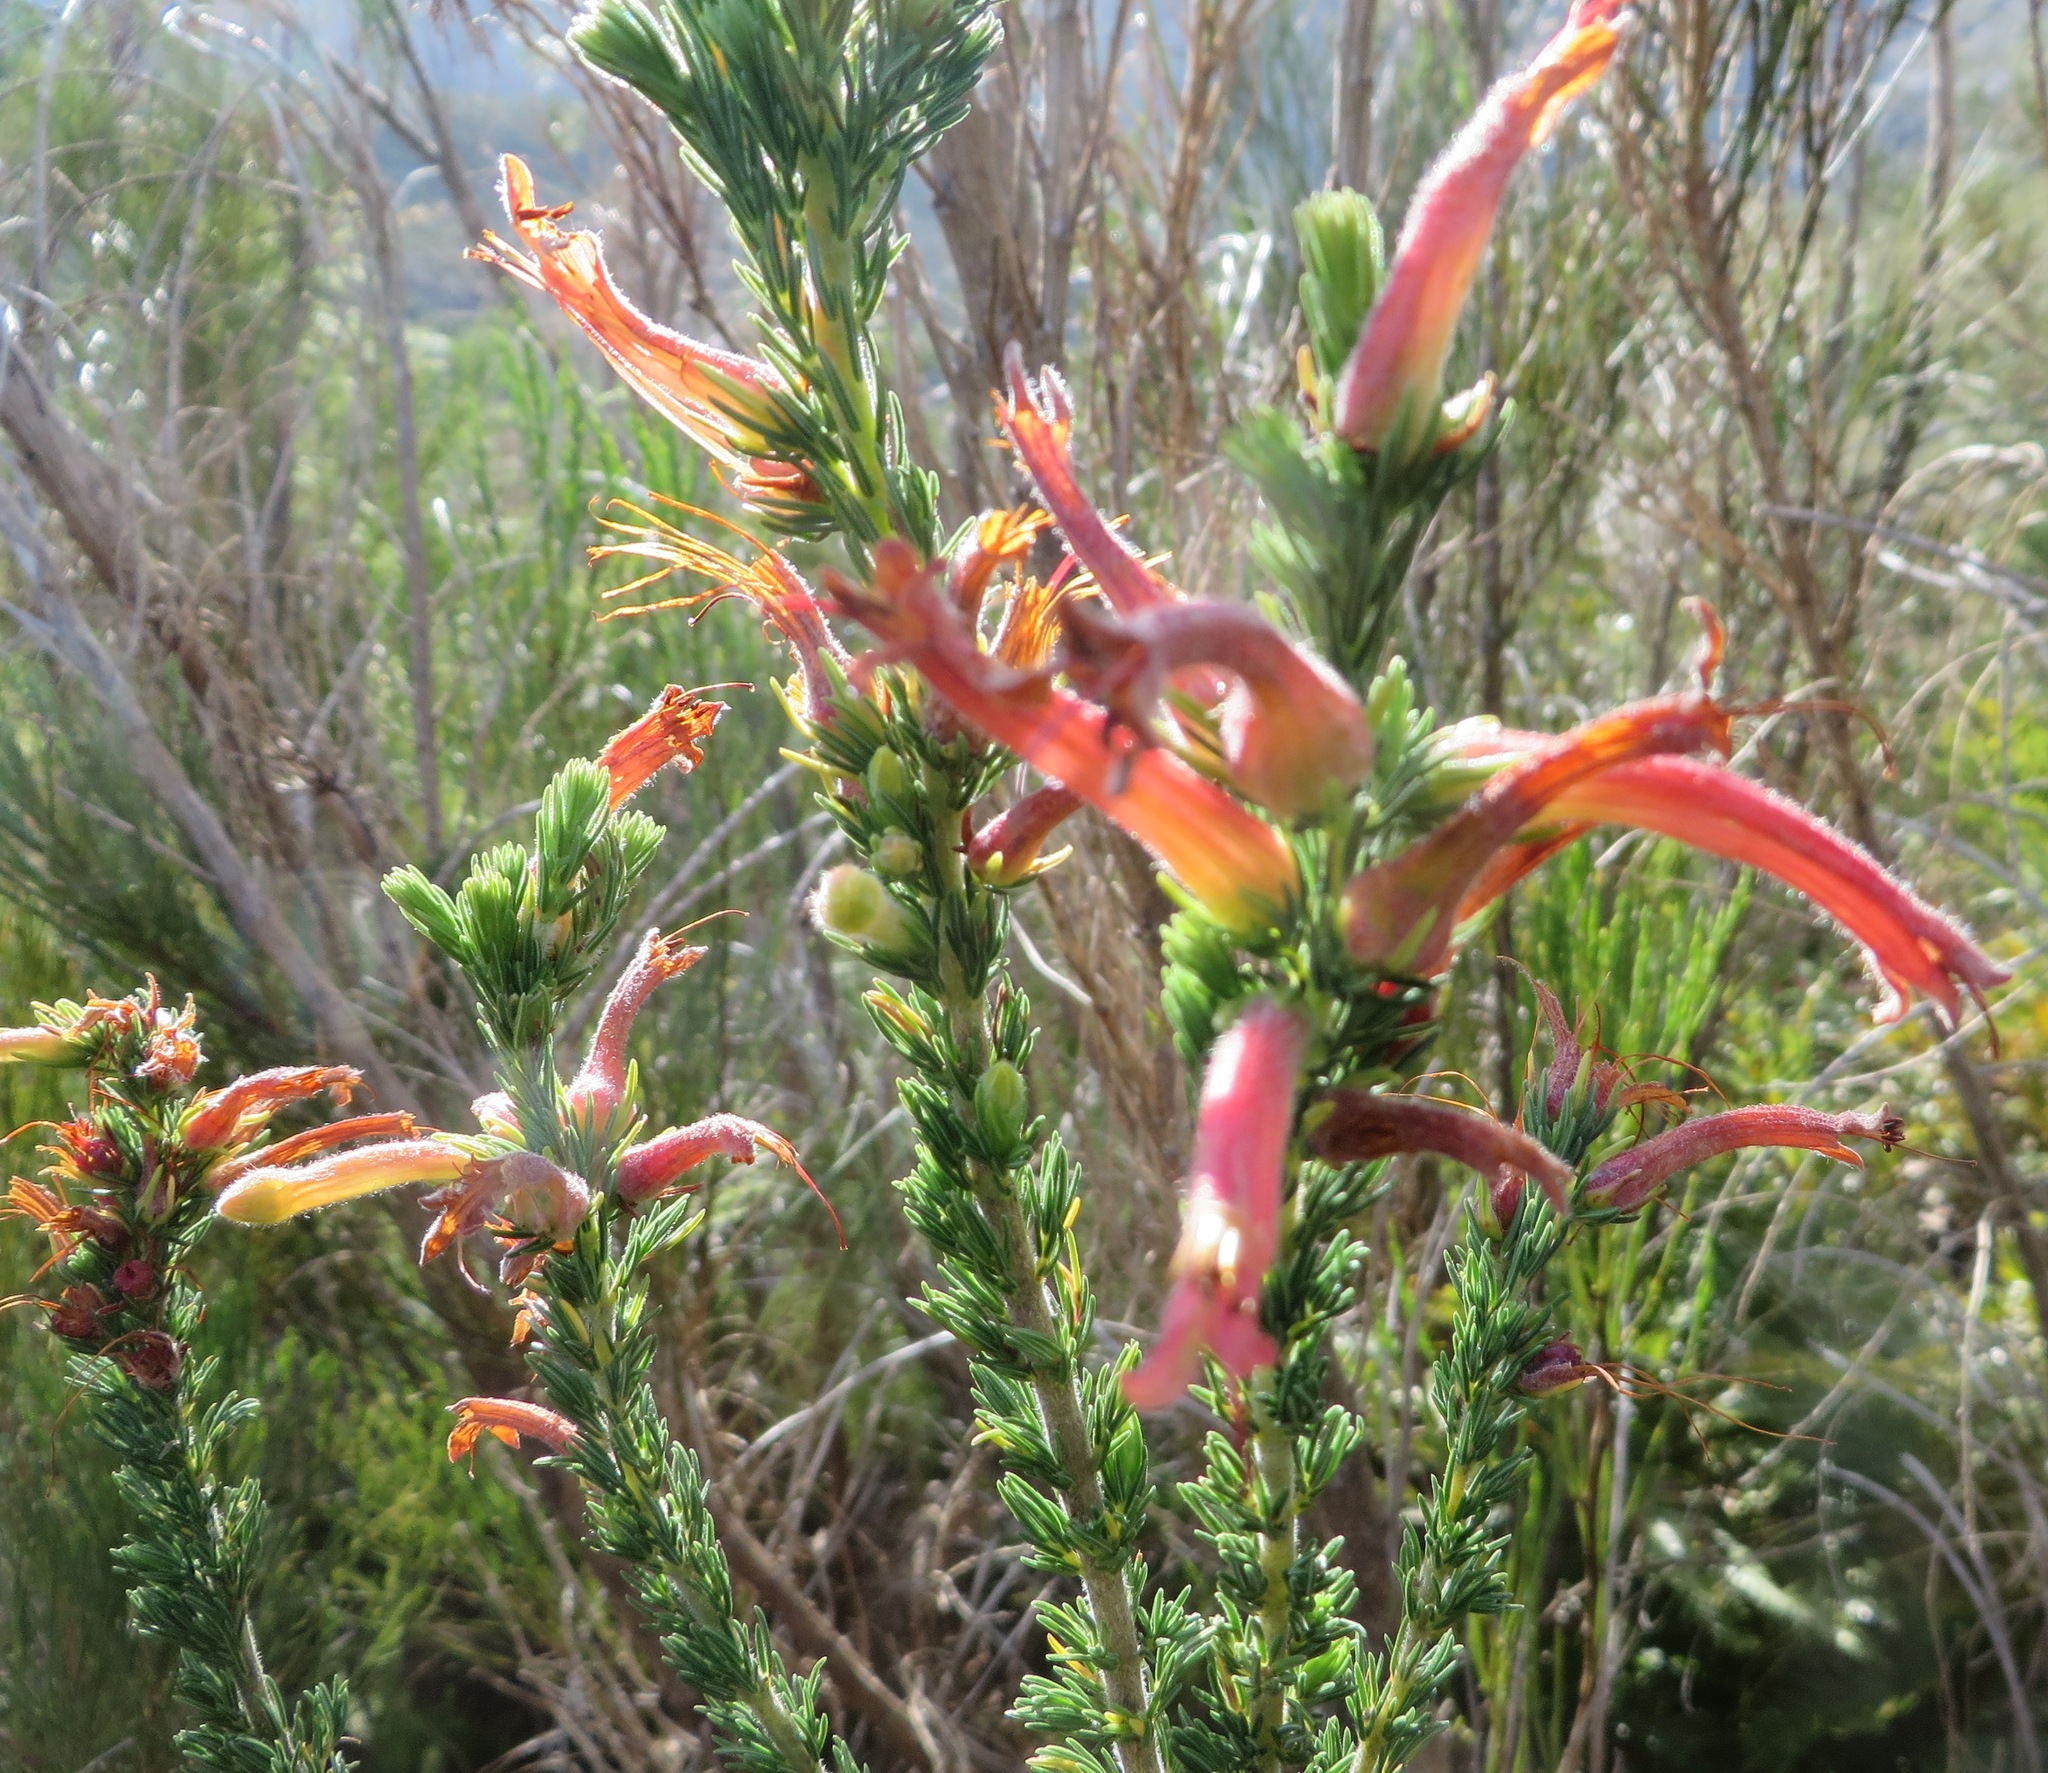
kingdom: Plantae
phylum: Tracheophyta
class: Magnoliopsida
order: Ericales
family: Ericaceae
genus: Erica
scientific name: Erica curviflora
